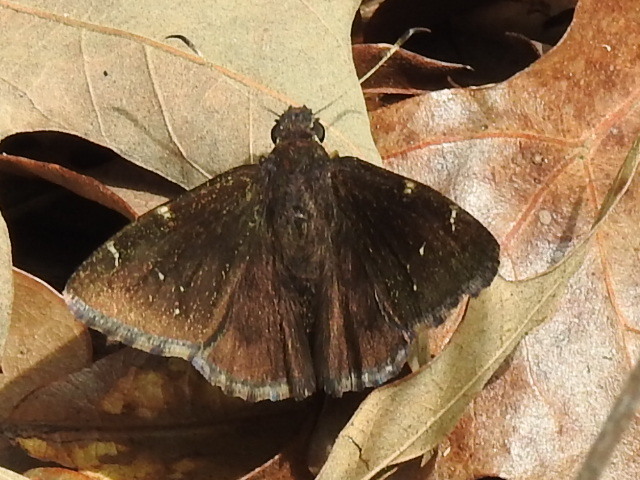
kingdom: Animalia
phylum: Arthropoda
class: Insecta
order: Lepidoptera
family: Hesperiidae
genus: Thorybes
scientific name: Thorybes pylades
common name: Northern cloudywing
